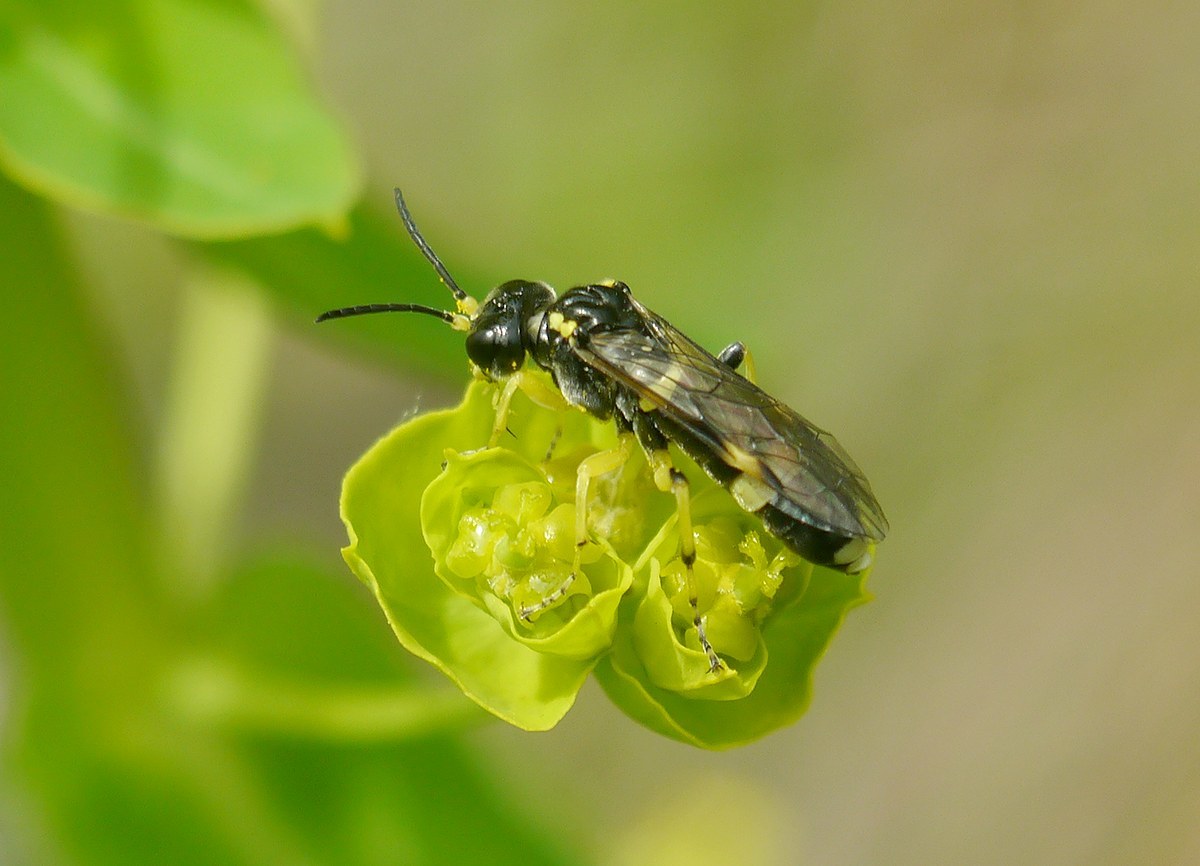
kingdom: Animalia
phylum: Arthropoda
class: Insecta
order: Hymenoptera
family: Tenthredinidae
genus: Tenthredo
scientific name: Tenthredo zonula
